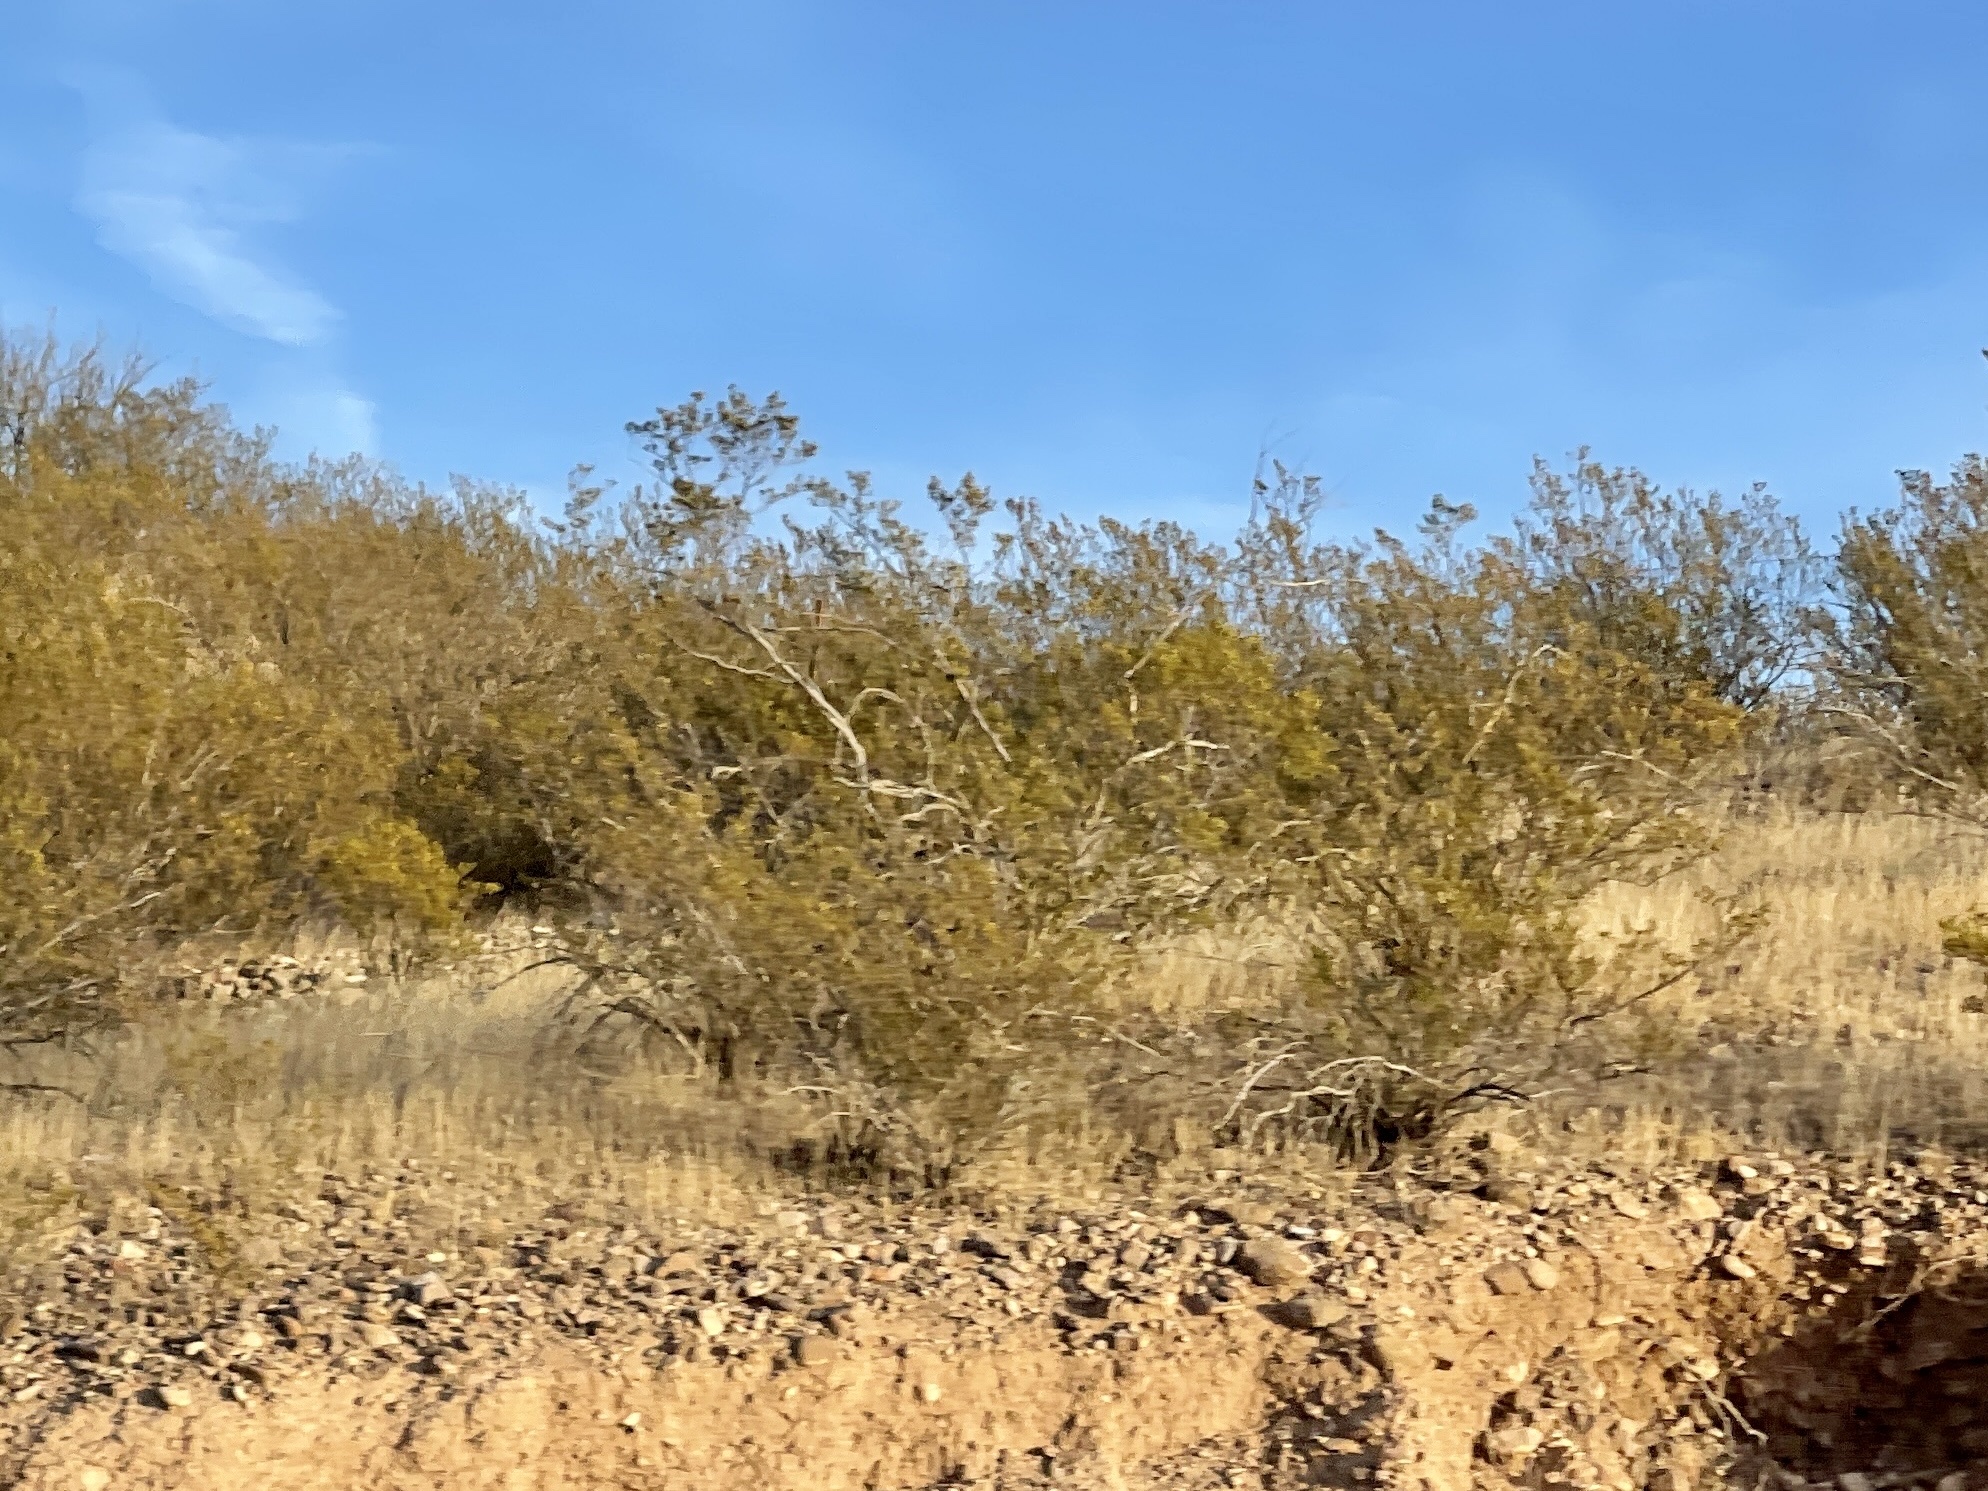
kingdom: Plantae
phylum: Tracheophyta
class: Magnoliopsida
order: Zygophyllales
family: Zygophyllaceae
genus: Larrea
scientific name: Larrea tridentata
